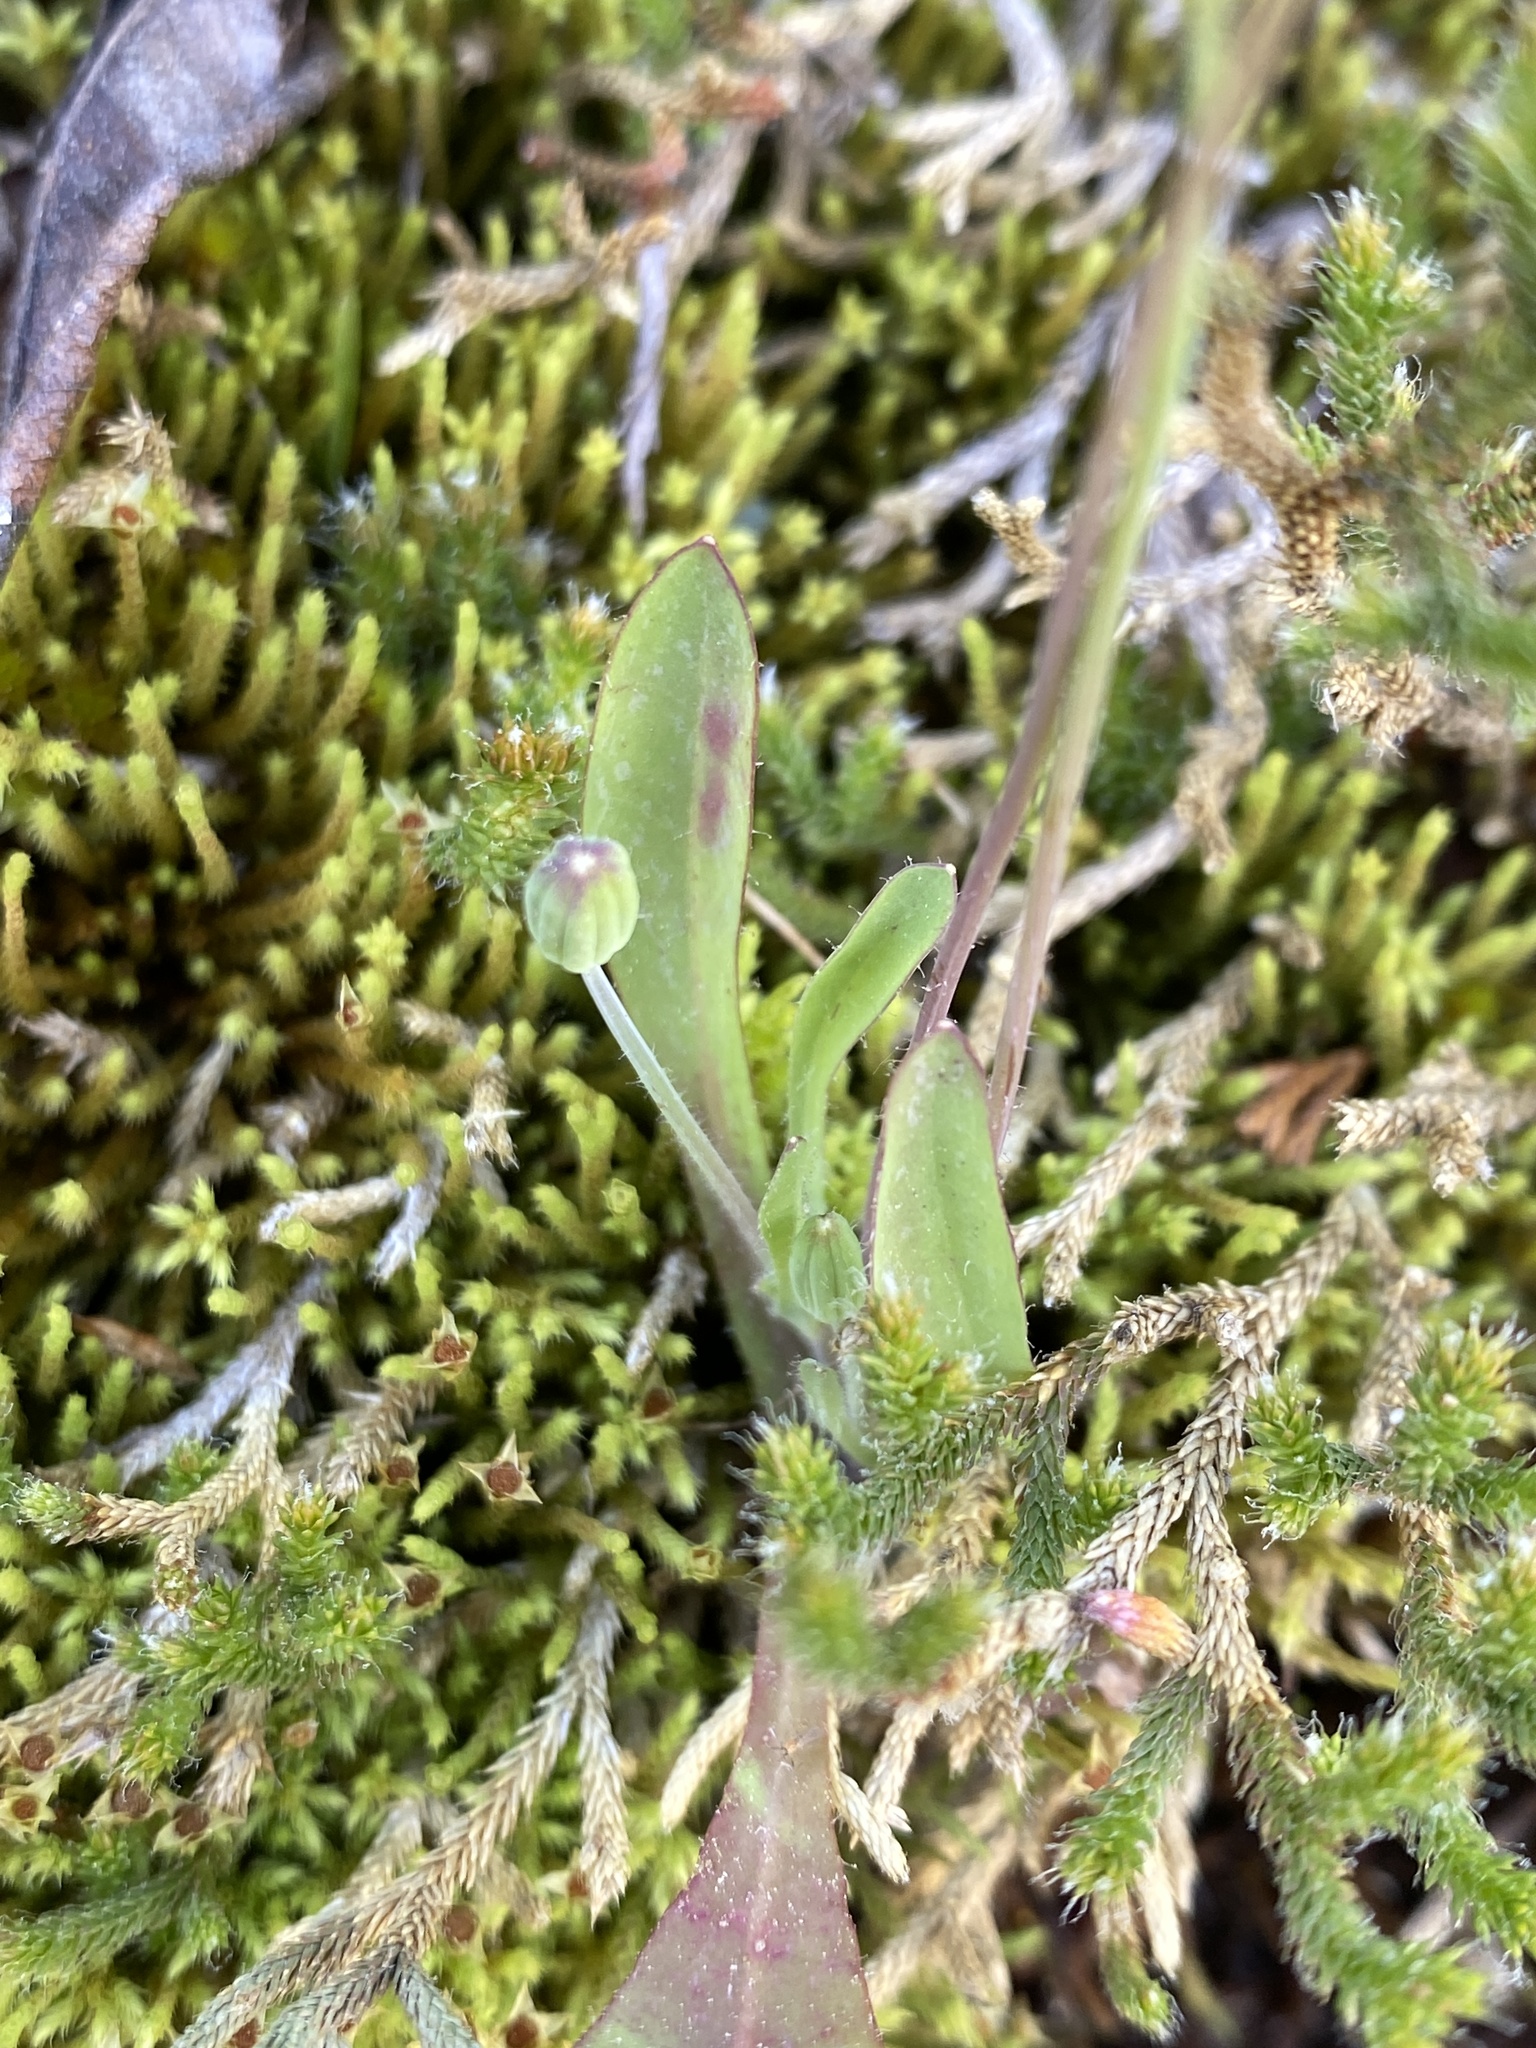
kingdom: Plantae
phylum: Tracheophyta
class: Magnoliopsida
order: Asterales
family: Asteraceae
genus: Krigia
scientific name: Krigia virginica
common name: Virginia dwarf-dandelion
